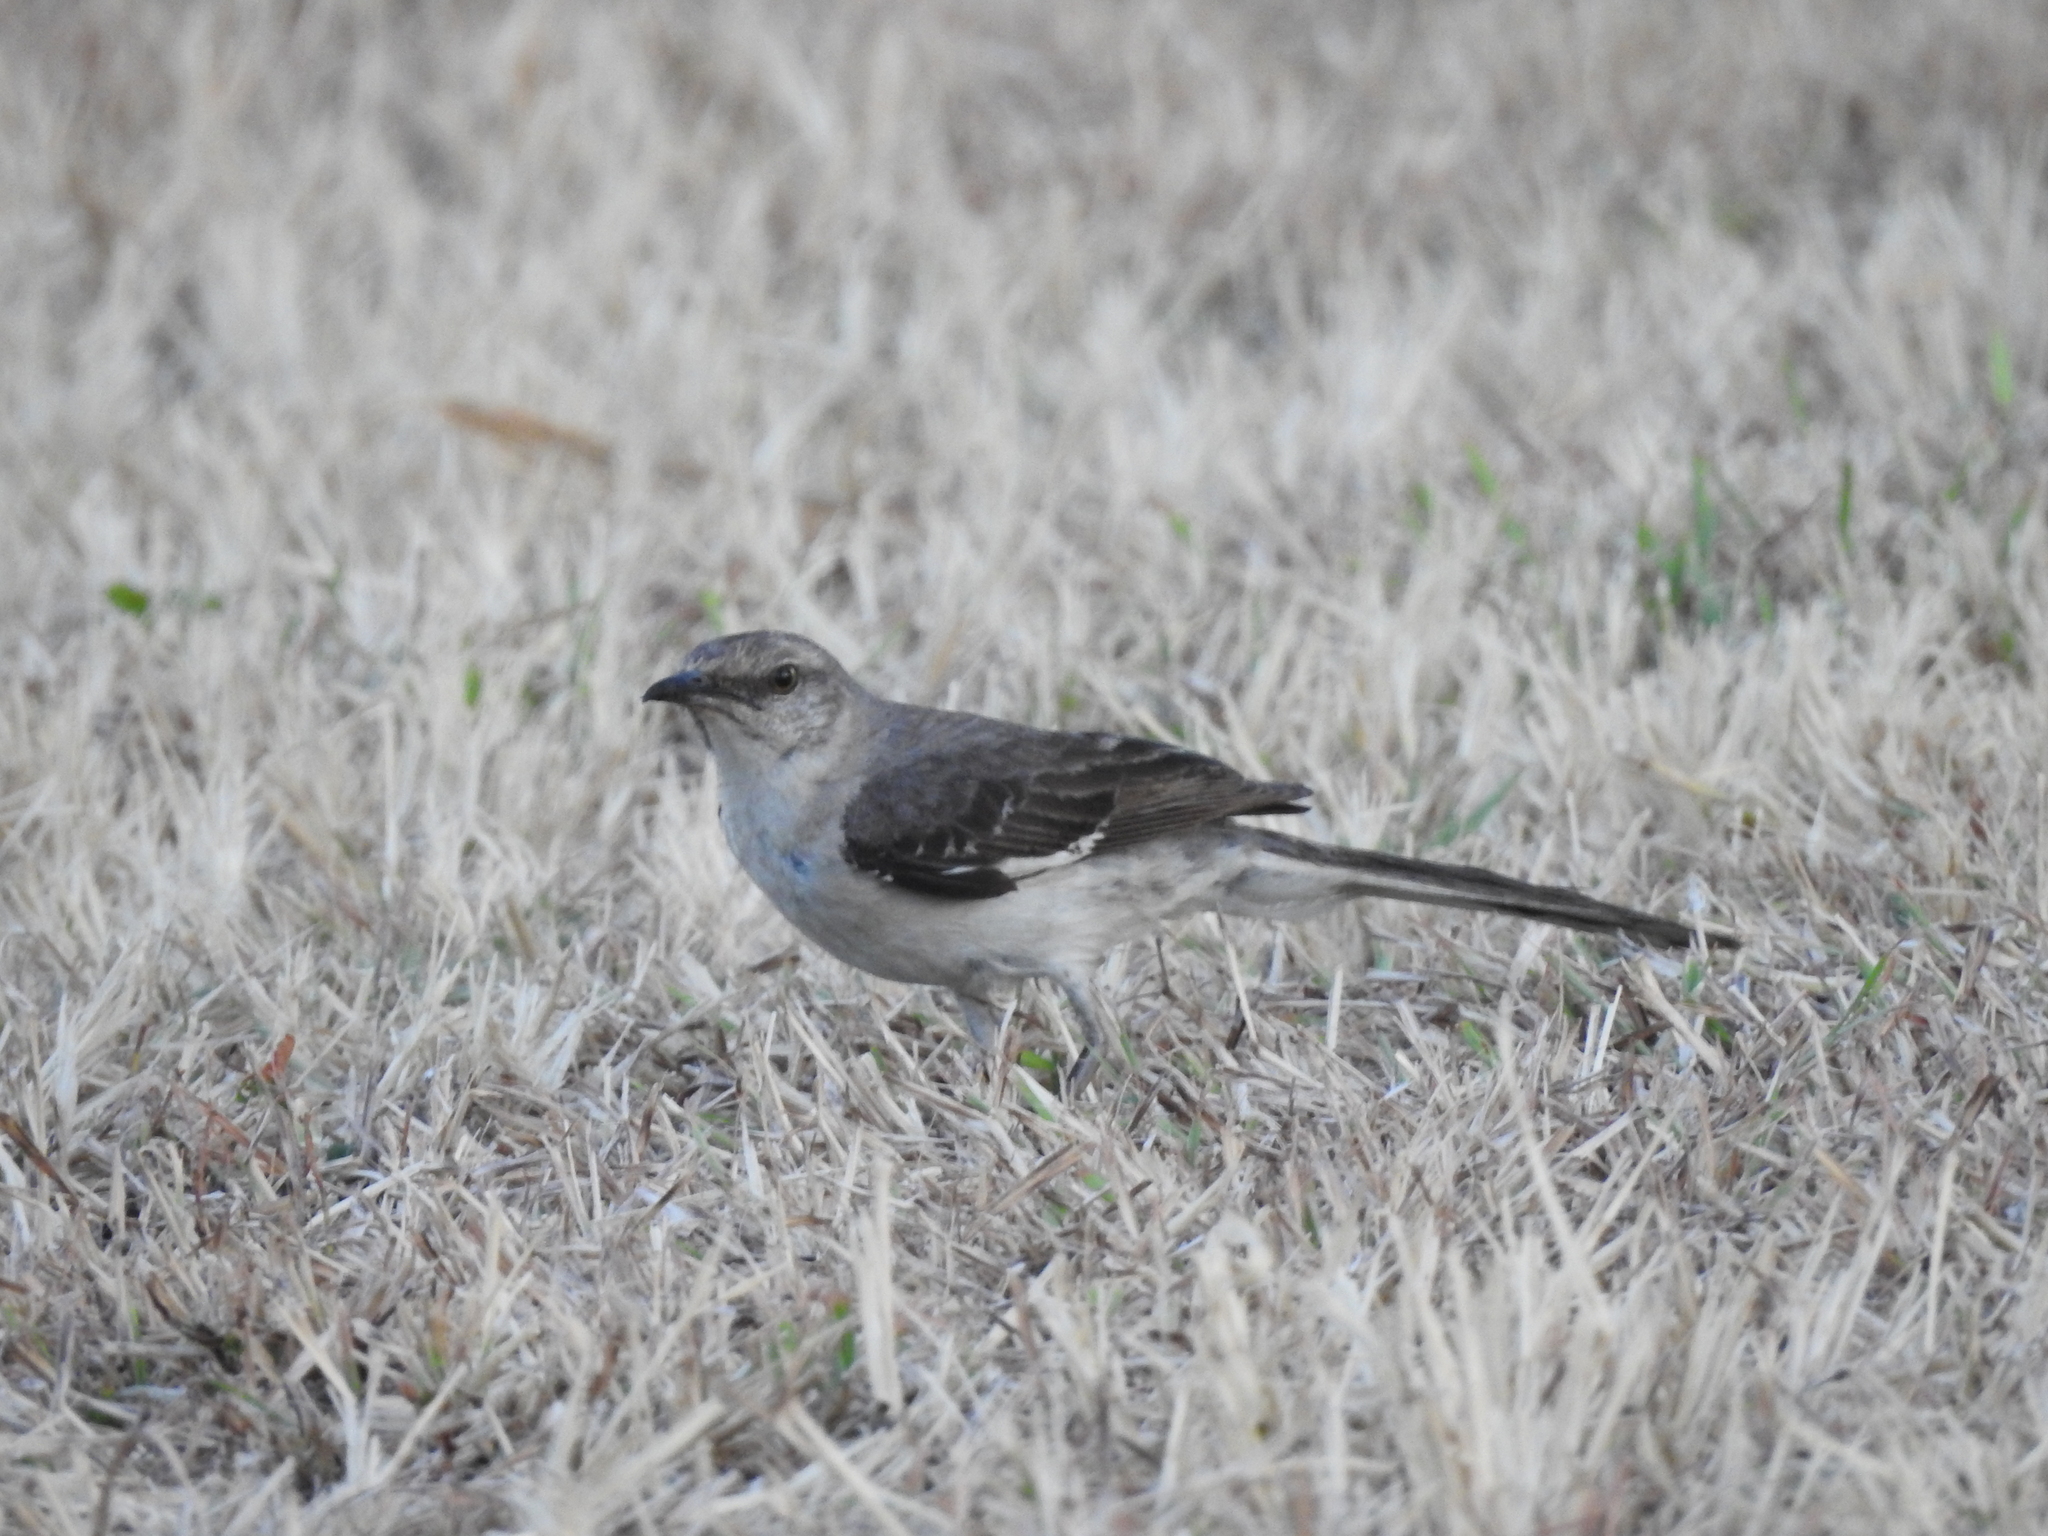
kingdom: Animalia
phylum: Chordata
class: Aves
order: Passeriformes
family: Mimidae
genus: Mimus
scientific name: Mimus polyglottos
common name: Northern mockingbird
